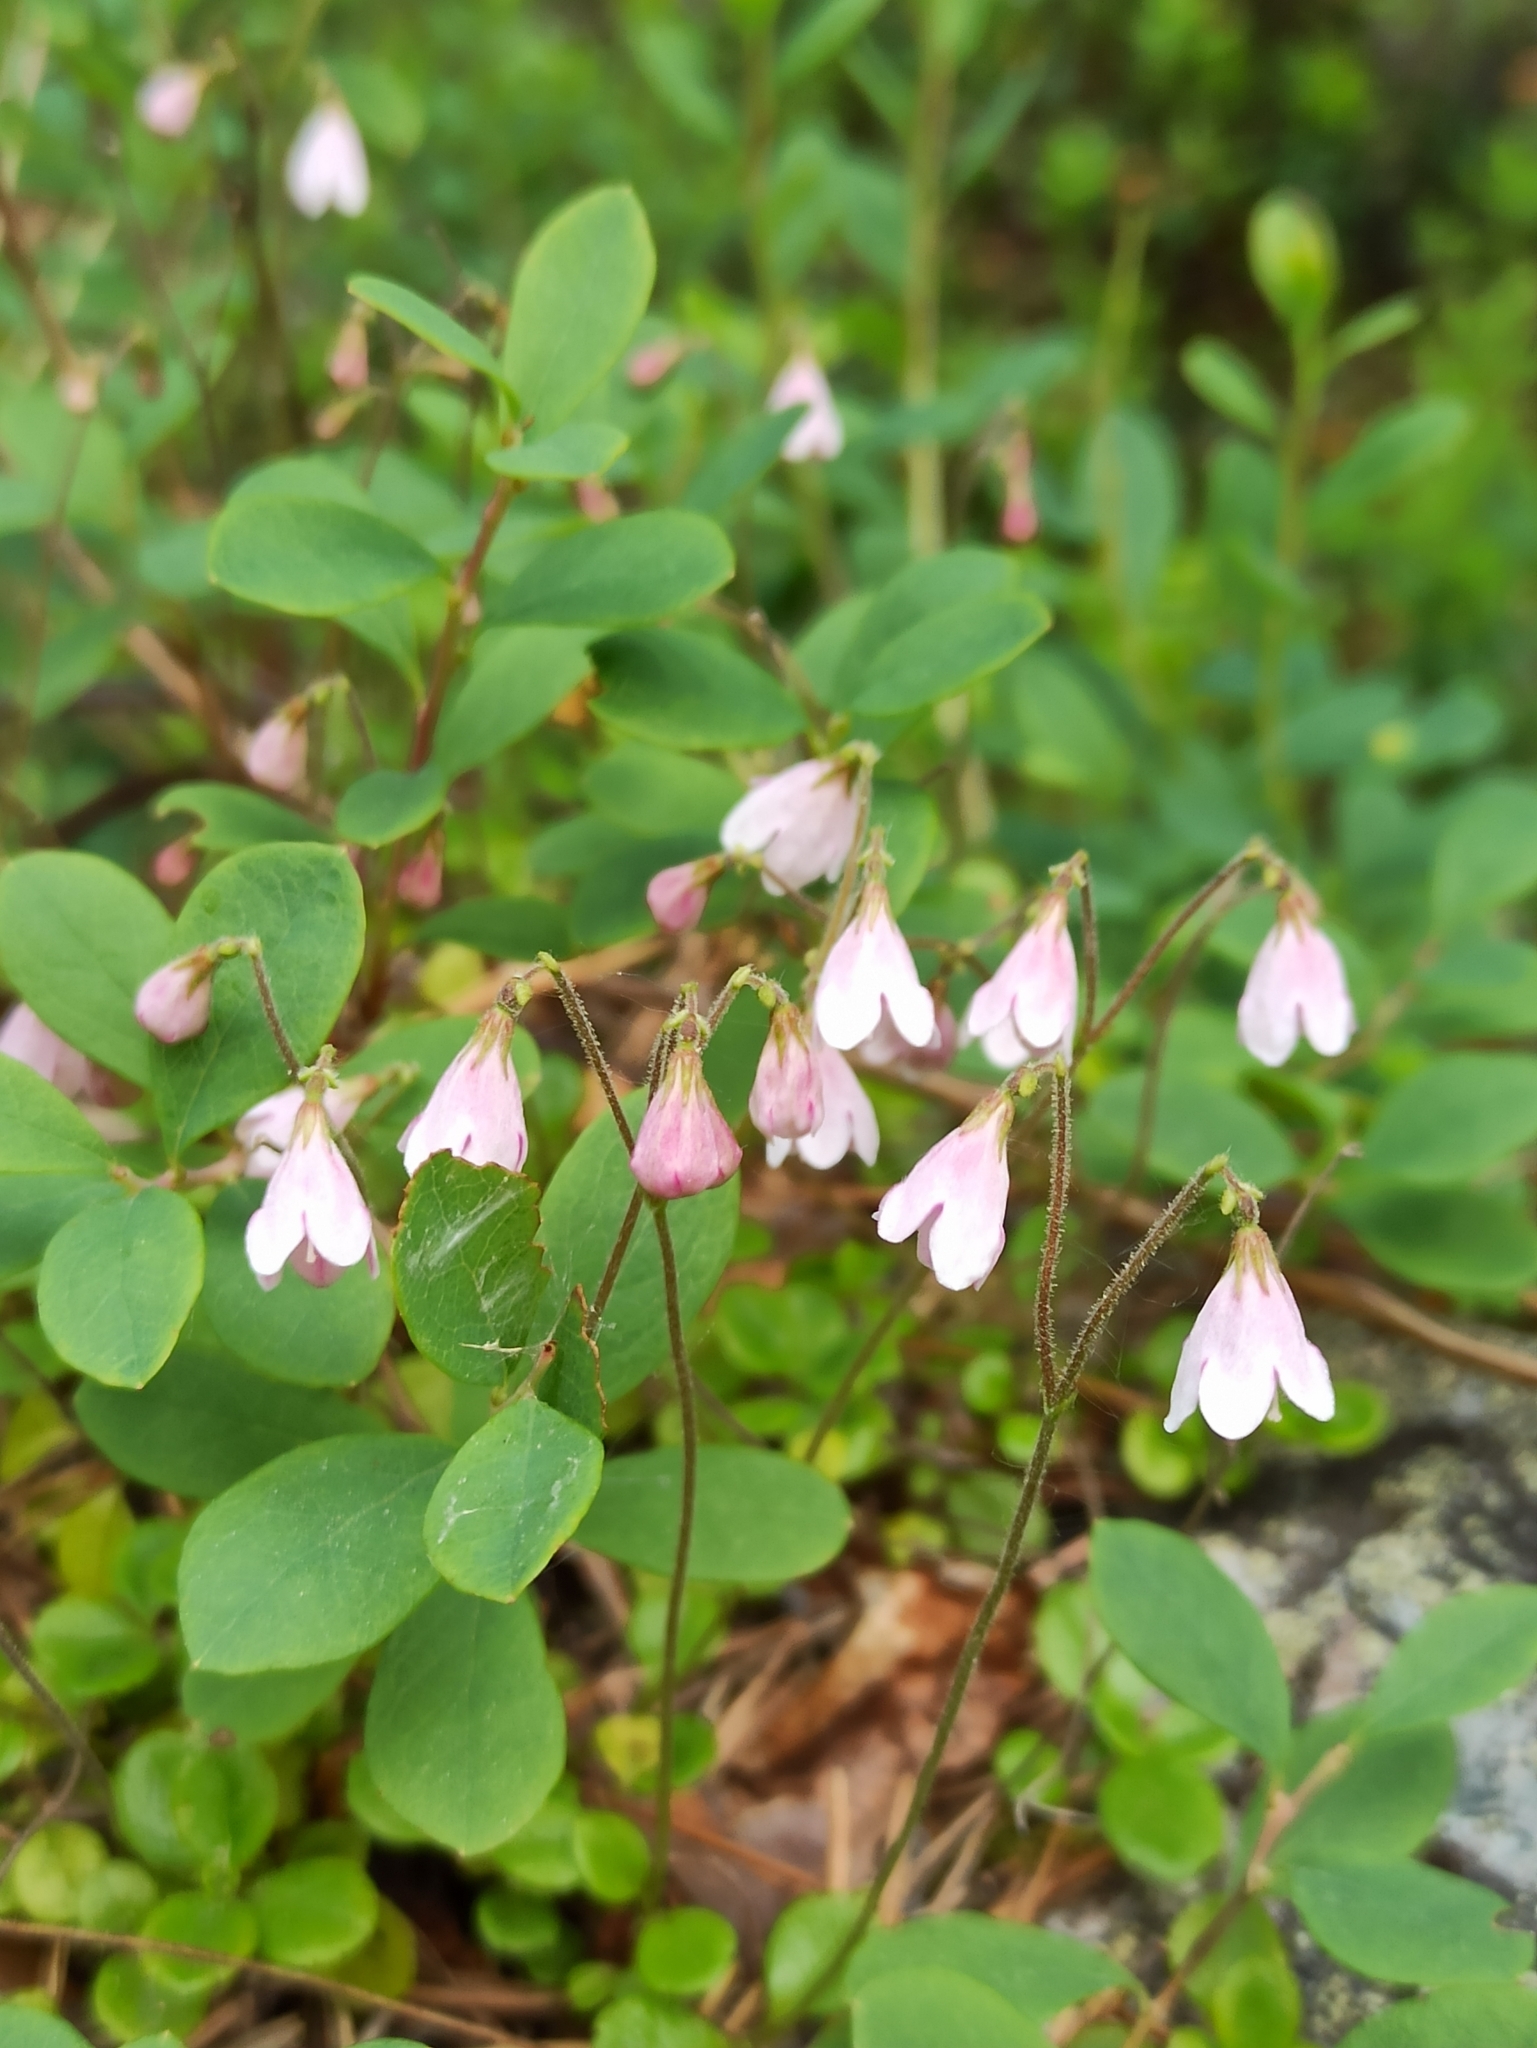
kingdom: Plantae
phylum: Tracheophyta
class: Magnoliopsida
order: Dipsacales
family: Caprifoliaceae
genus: Linnaea
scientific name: Linnaea borealis
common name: Twinflower
